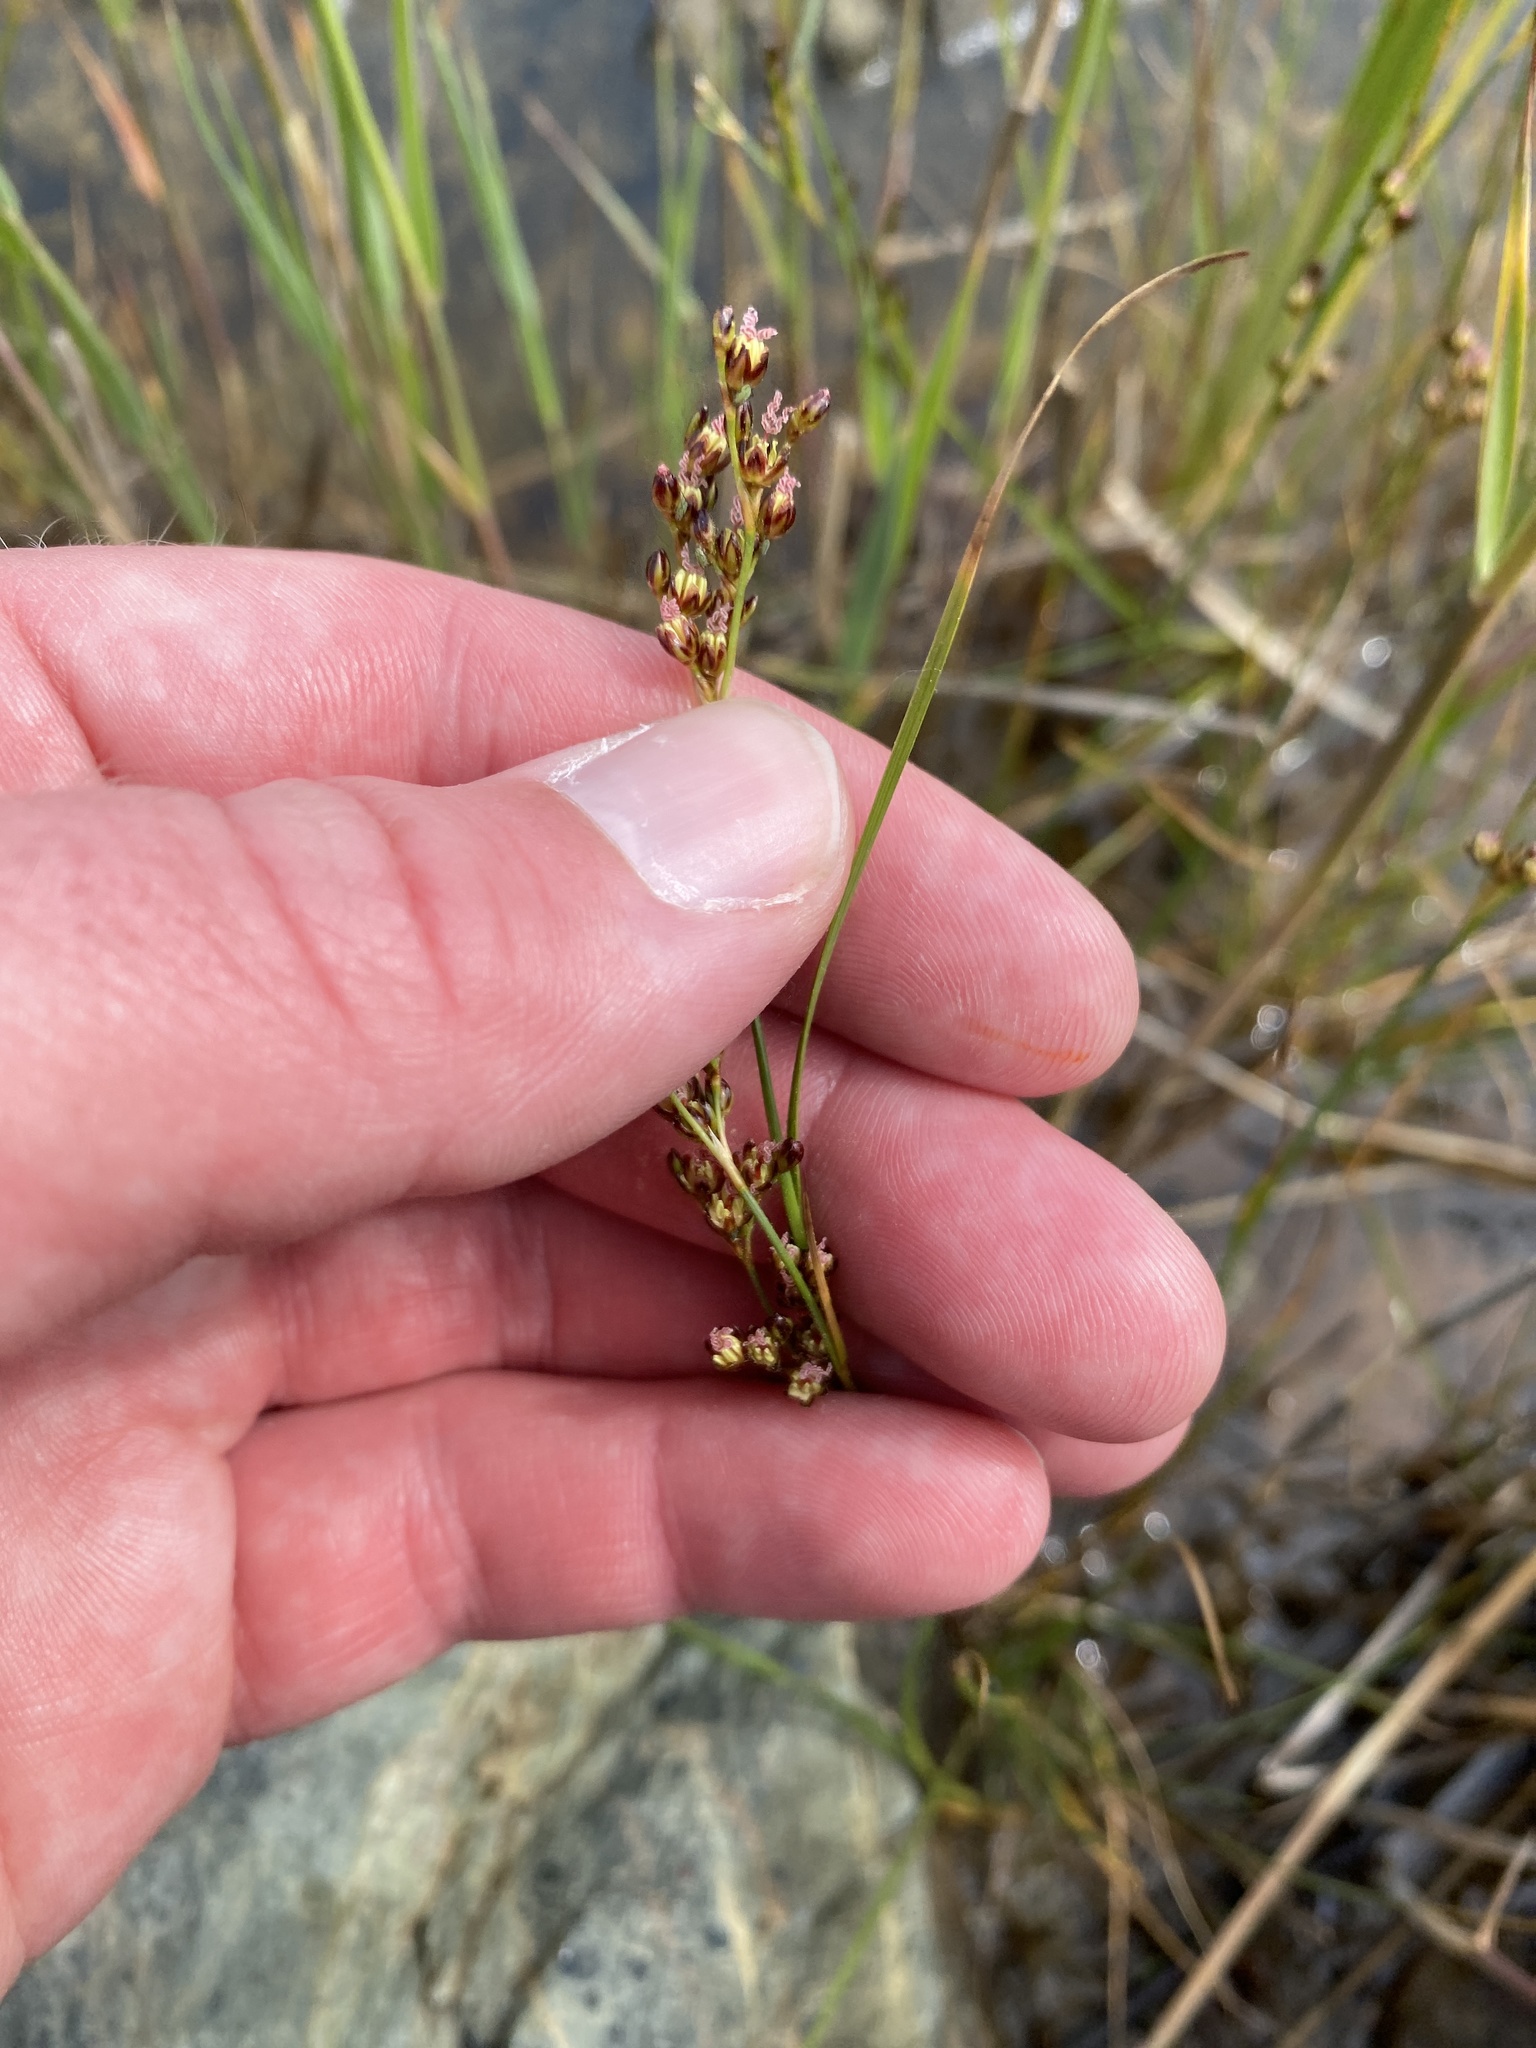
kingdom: Plantae
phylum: Tracheophyta
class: Liliopsida
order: Poales
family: Juncaceae
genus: Juncus
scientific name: Juncus gerardi
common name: Saltmarsh rush
